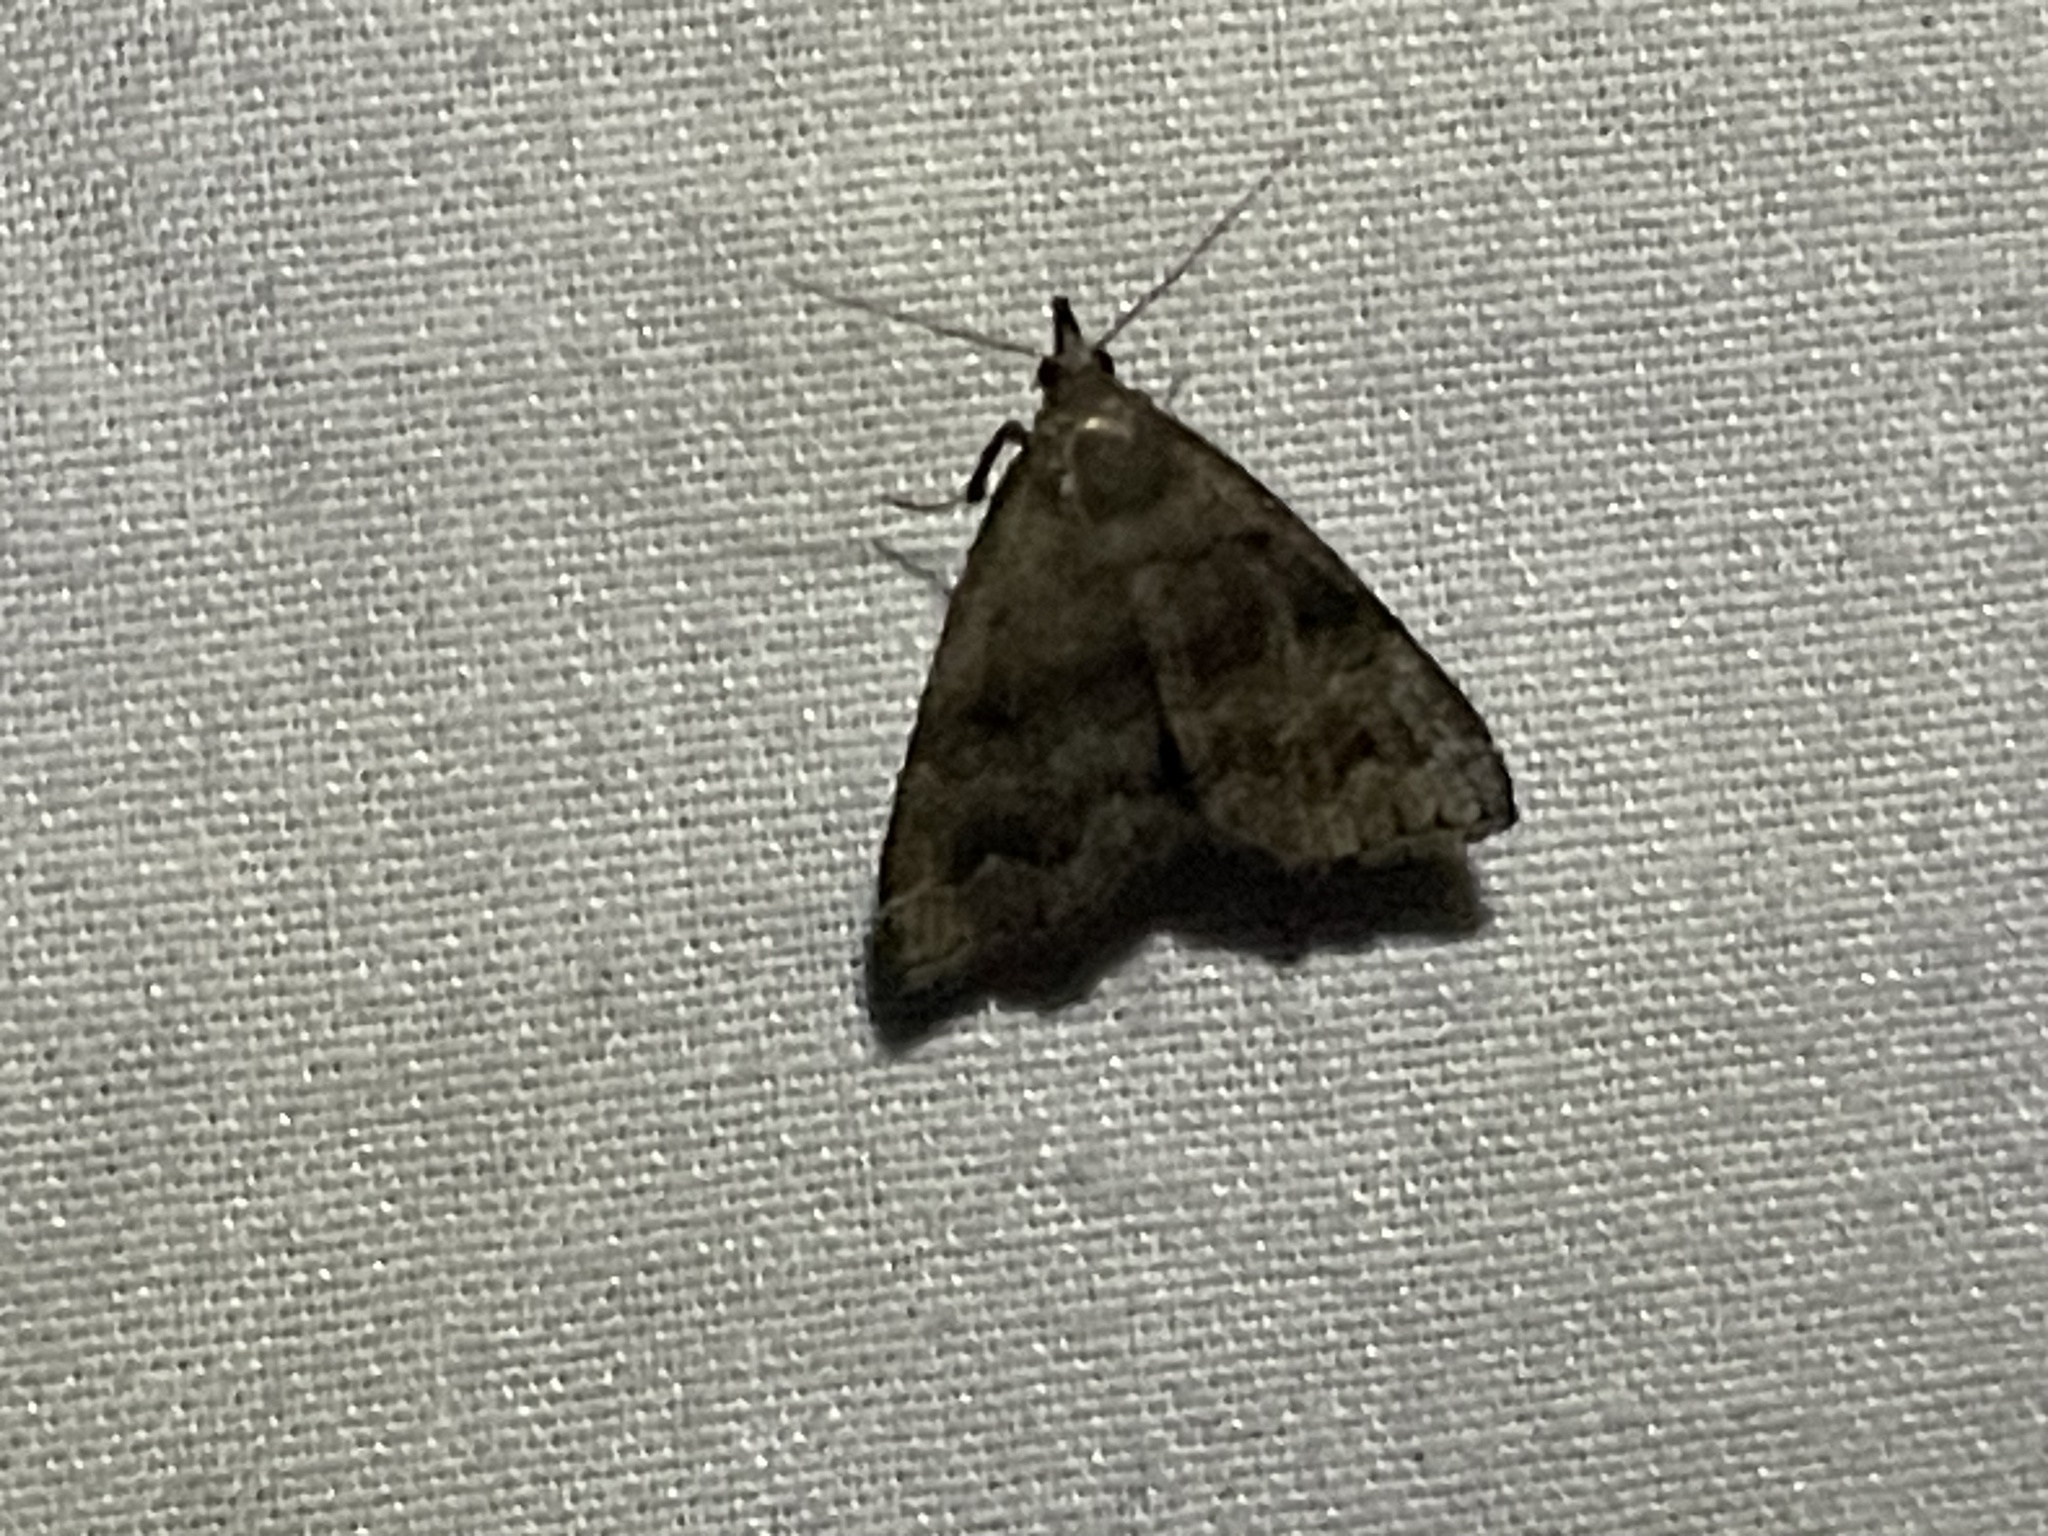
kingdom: Animalia
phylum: Arthropoda
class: Insecta
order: Lepidoptera
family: Erebidae
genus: Phalaenostola
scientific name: Phalaenostola larentioides
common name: Black-banded owlet
